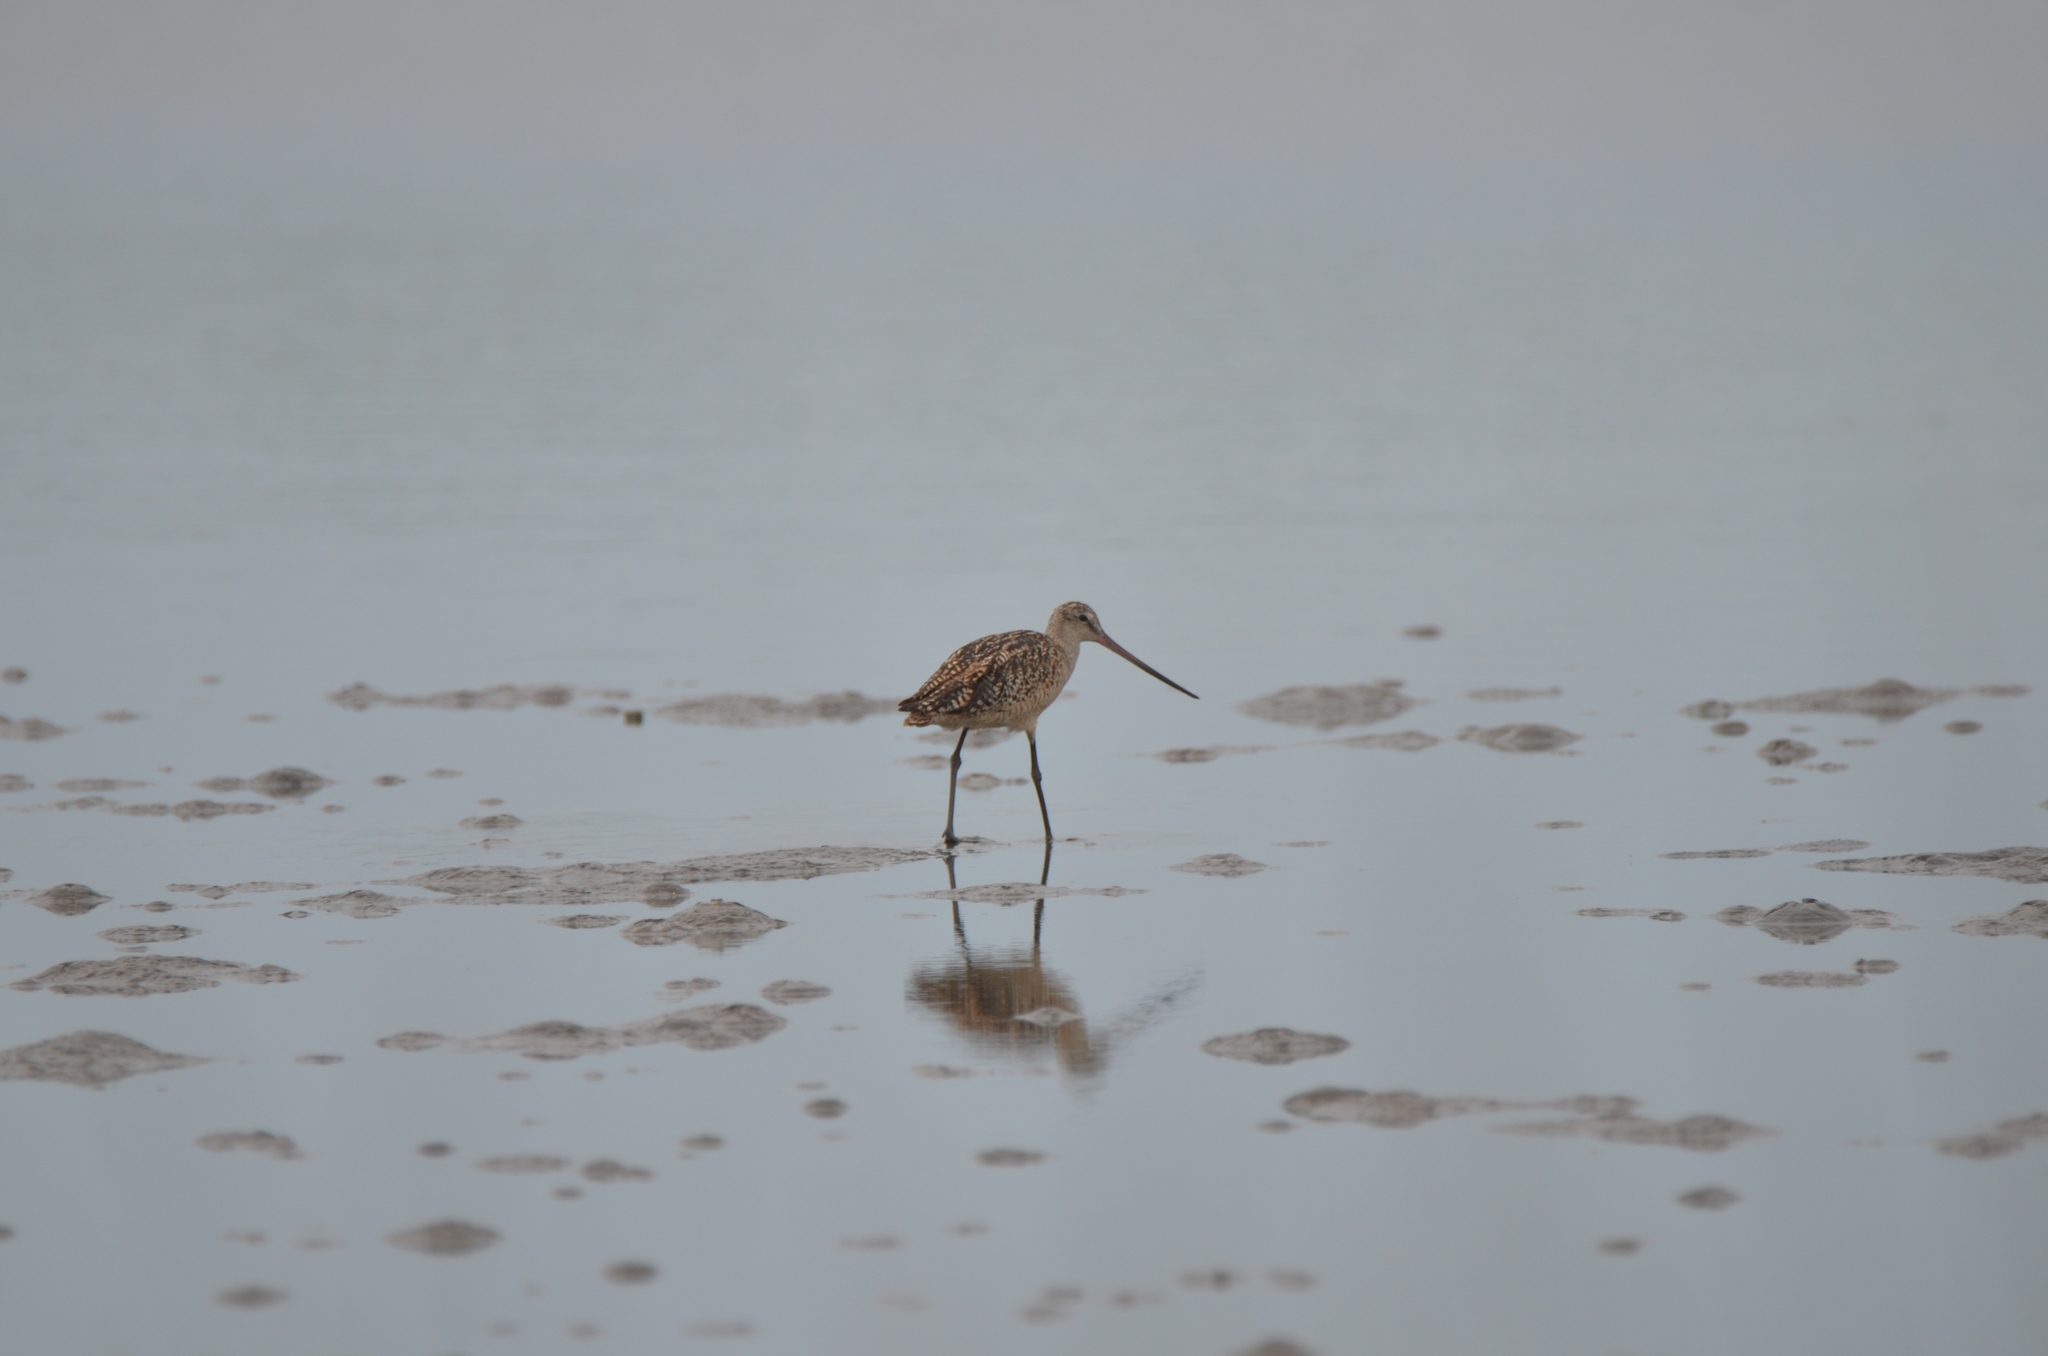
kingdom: Animalia
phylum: Chordata
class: Aves
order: Charadriiformes
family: Scolopacidae
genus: Limosa
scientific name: Limosa fedoa
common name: Marbled godwit
